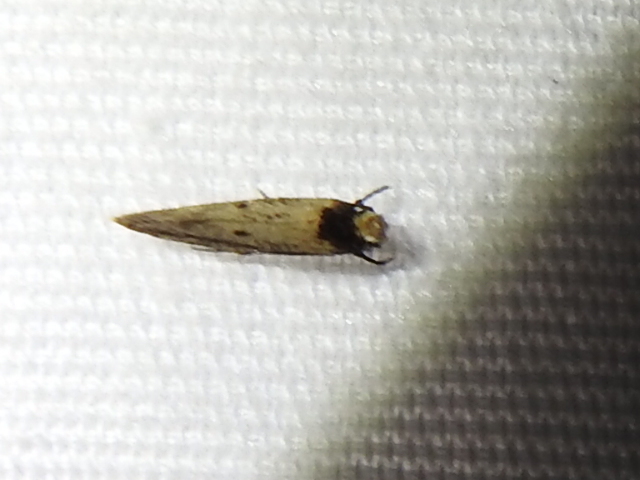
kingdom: Animalia
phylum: Arthropoda
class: Insecta
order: Lepidoptera
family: Tineidae
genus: Tinea
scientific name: Tinea apicimaculella
